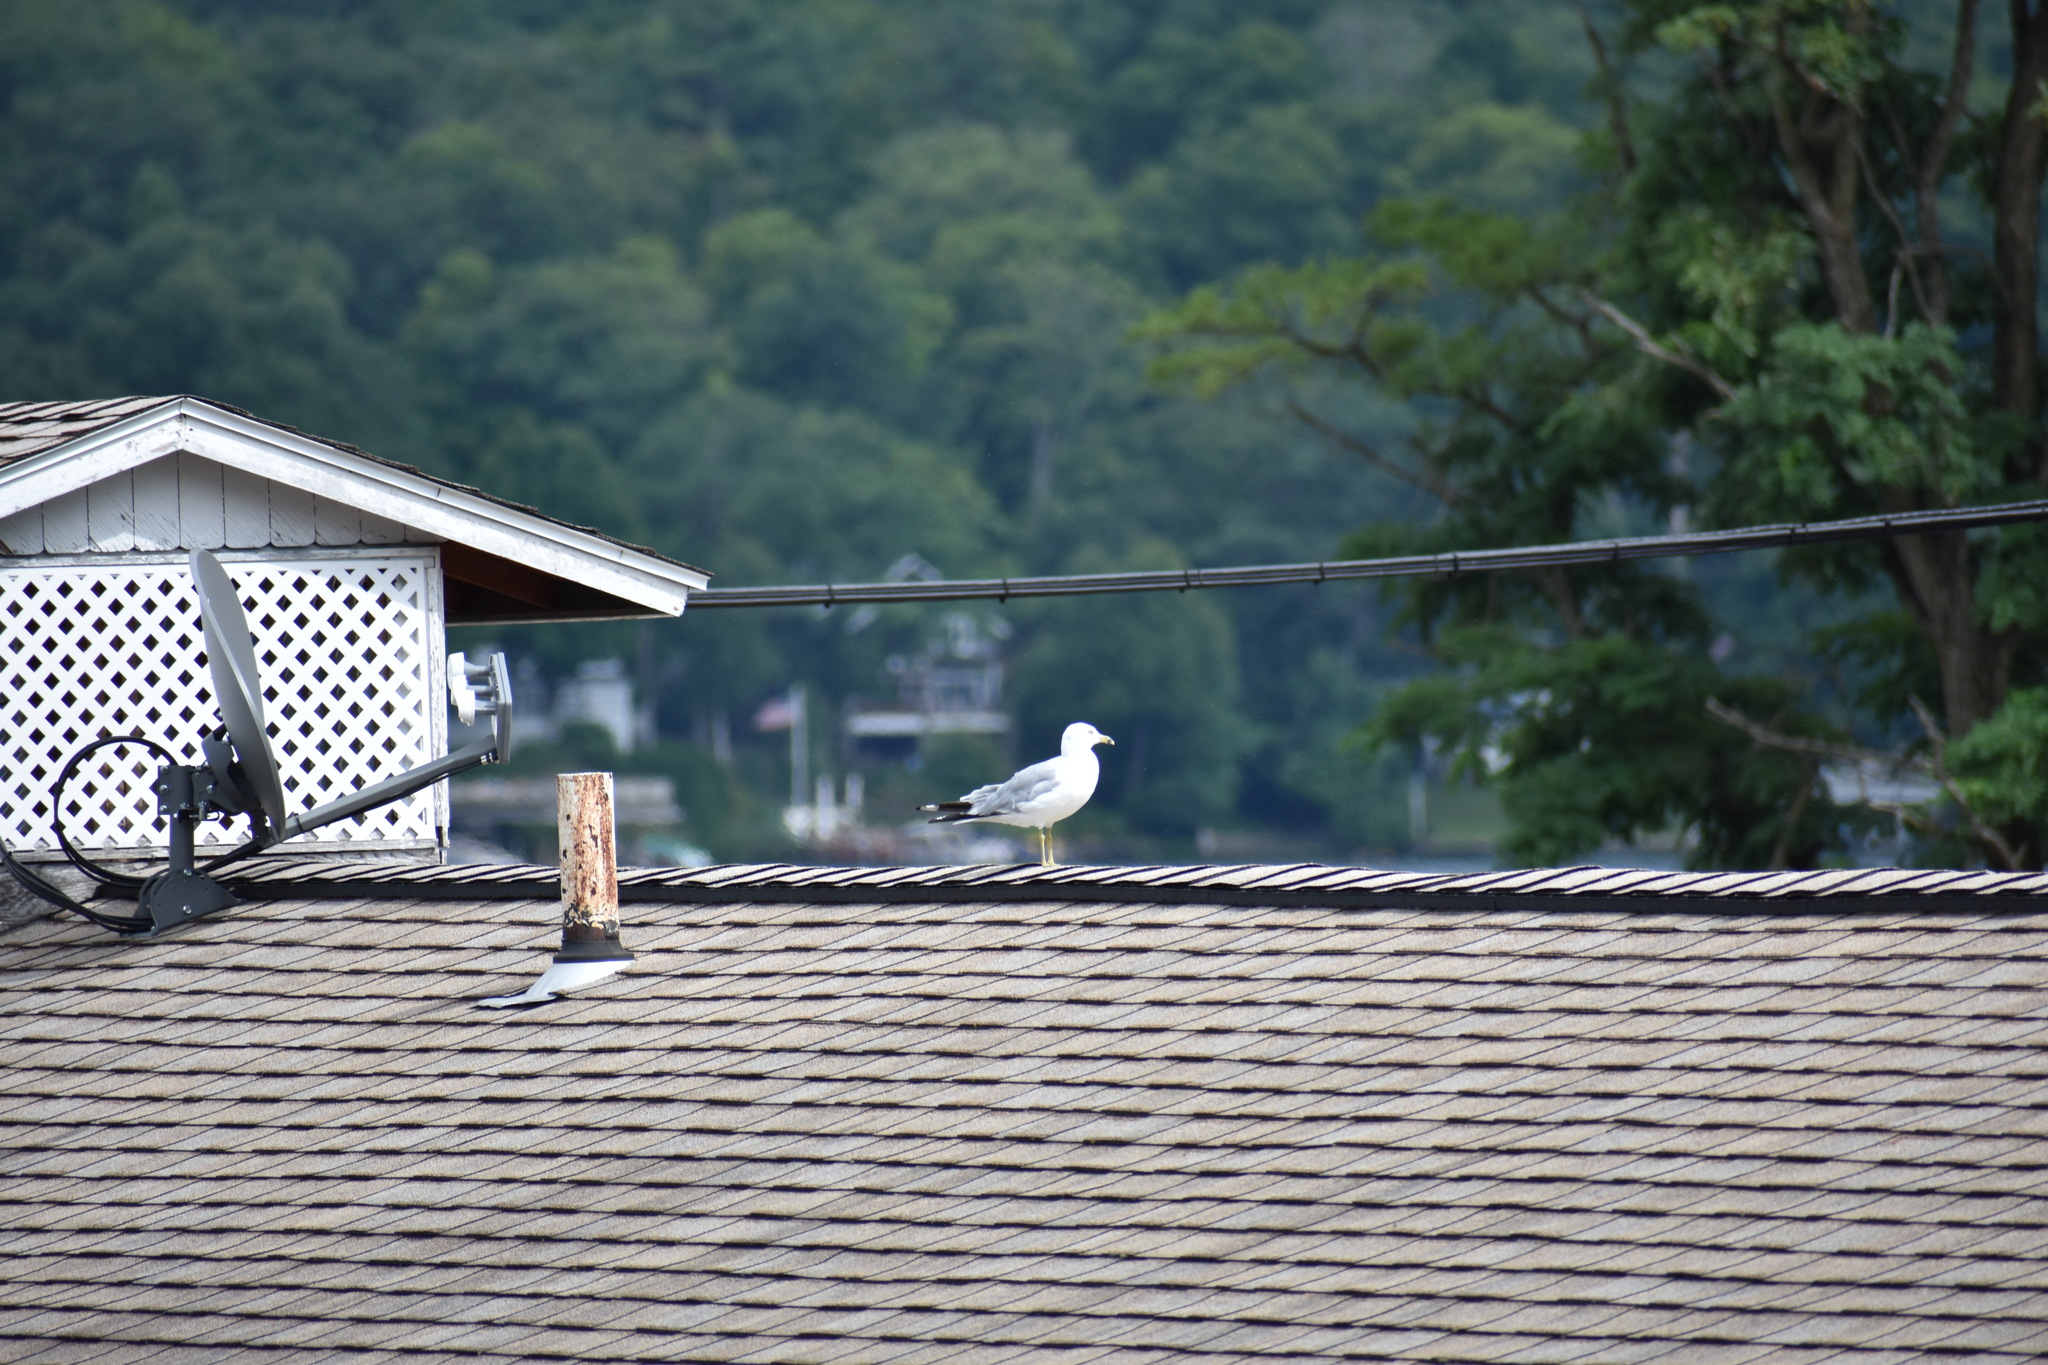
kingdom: Animalia
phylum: Chordata
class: Aves
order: Charadriiformes
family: Laridae
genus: Larus
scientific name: Larus delawarensis
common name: Ring-billed gull
